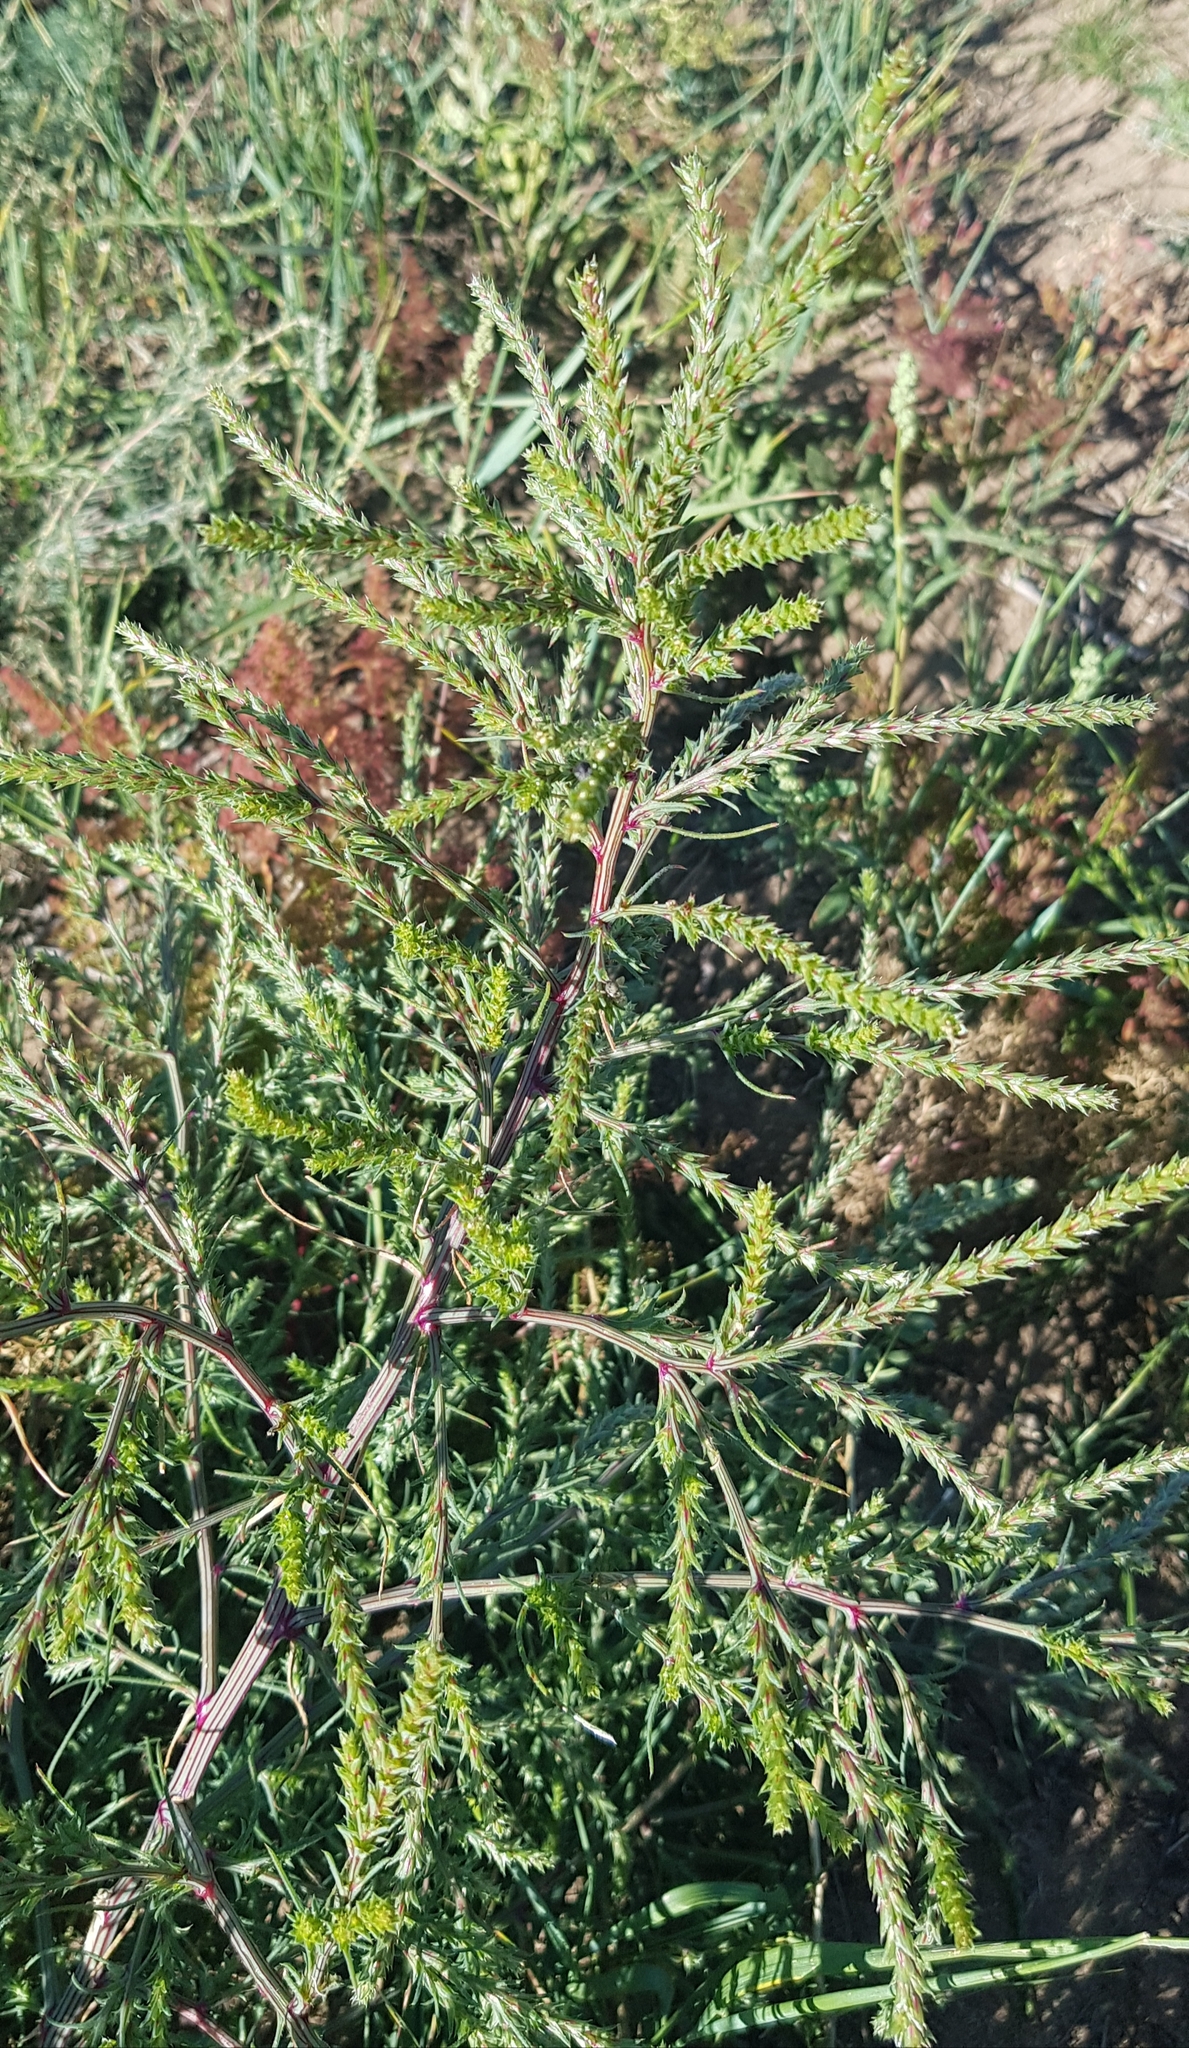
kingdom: Plantae
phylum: Tracheophyta
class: Magnoliopsida
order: Caryophyllales
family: Amaranthaceae
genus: Salsola
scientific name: Salsola collina
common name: Tumbleweed
